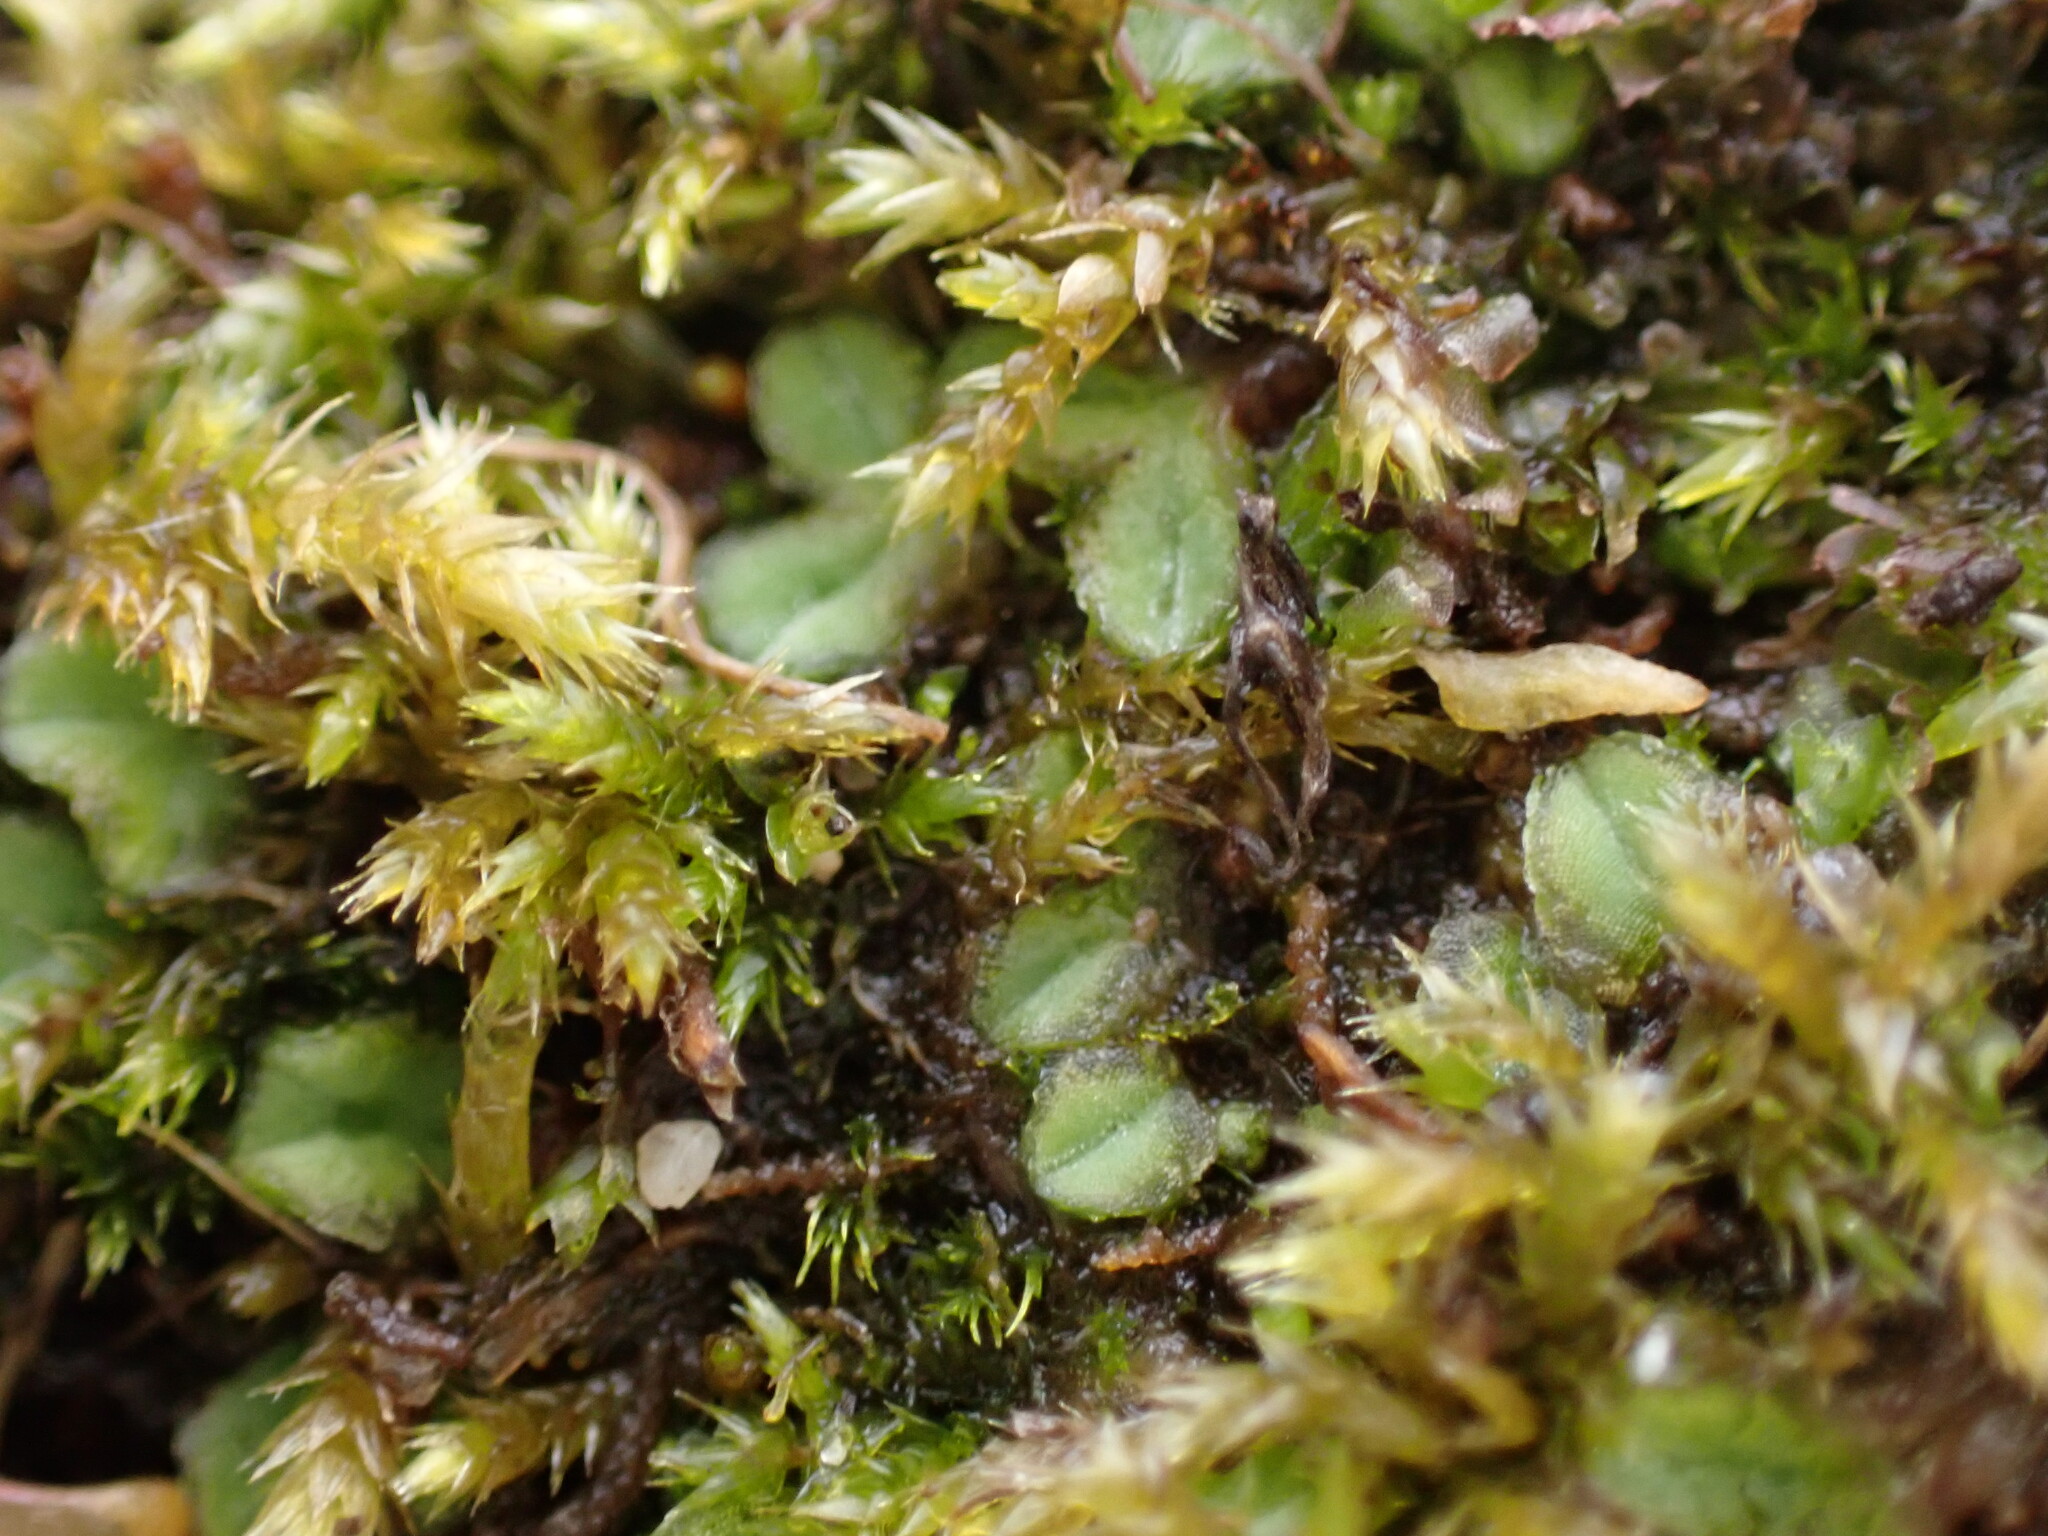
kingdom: Plantae
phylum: Marchantiophyta
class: Marchantiopsida
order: Marchantiales
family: Ricciaceae
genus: Riccia
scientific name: Riccia sorocarpa
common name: Common crystalwort
